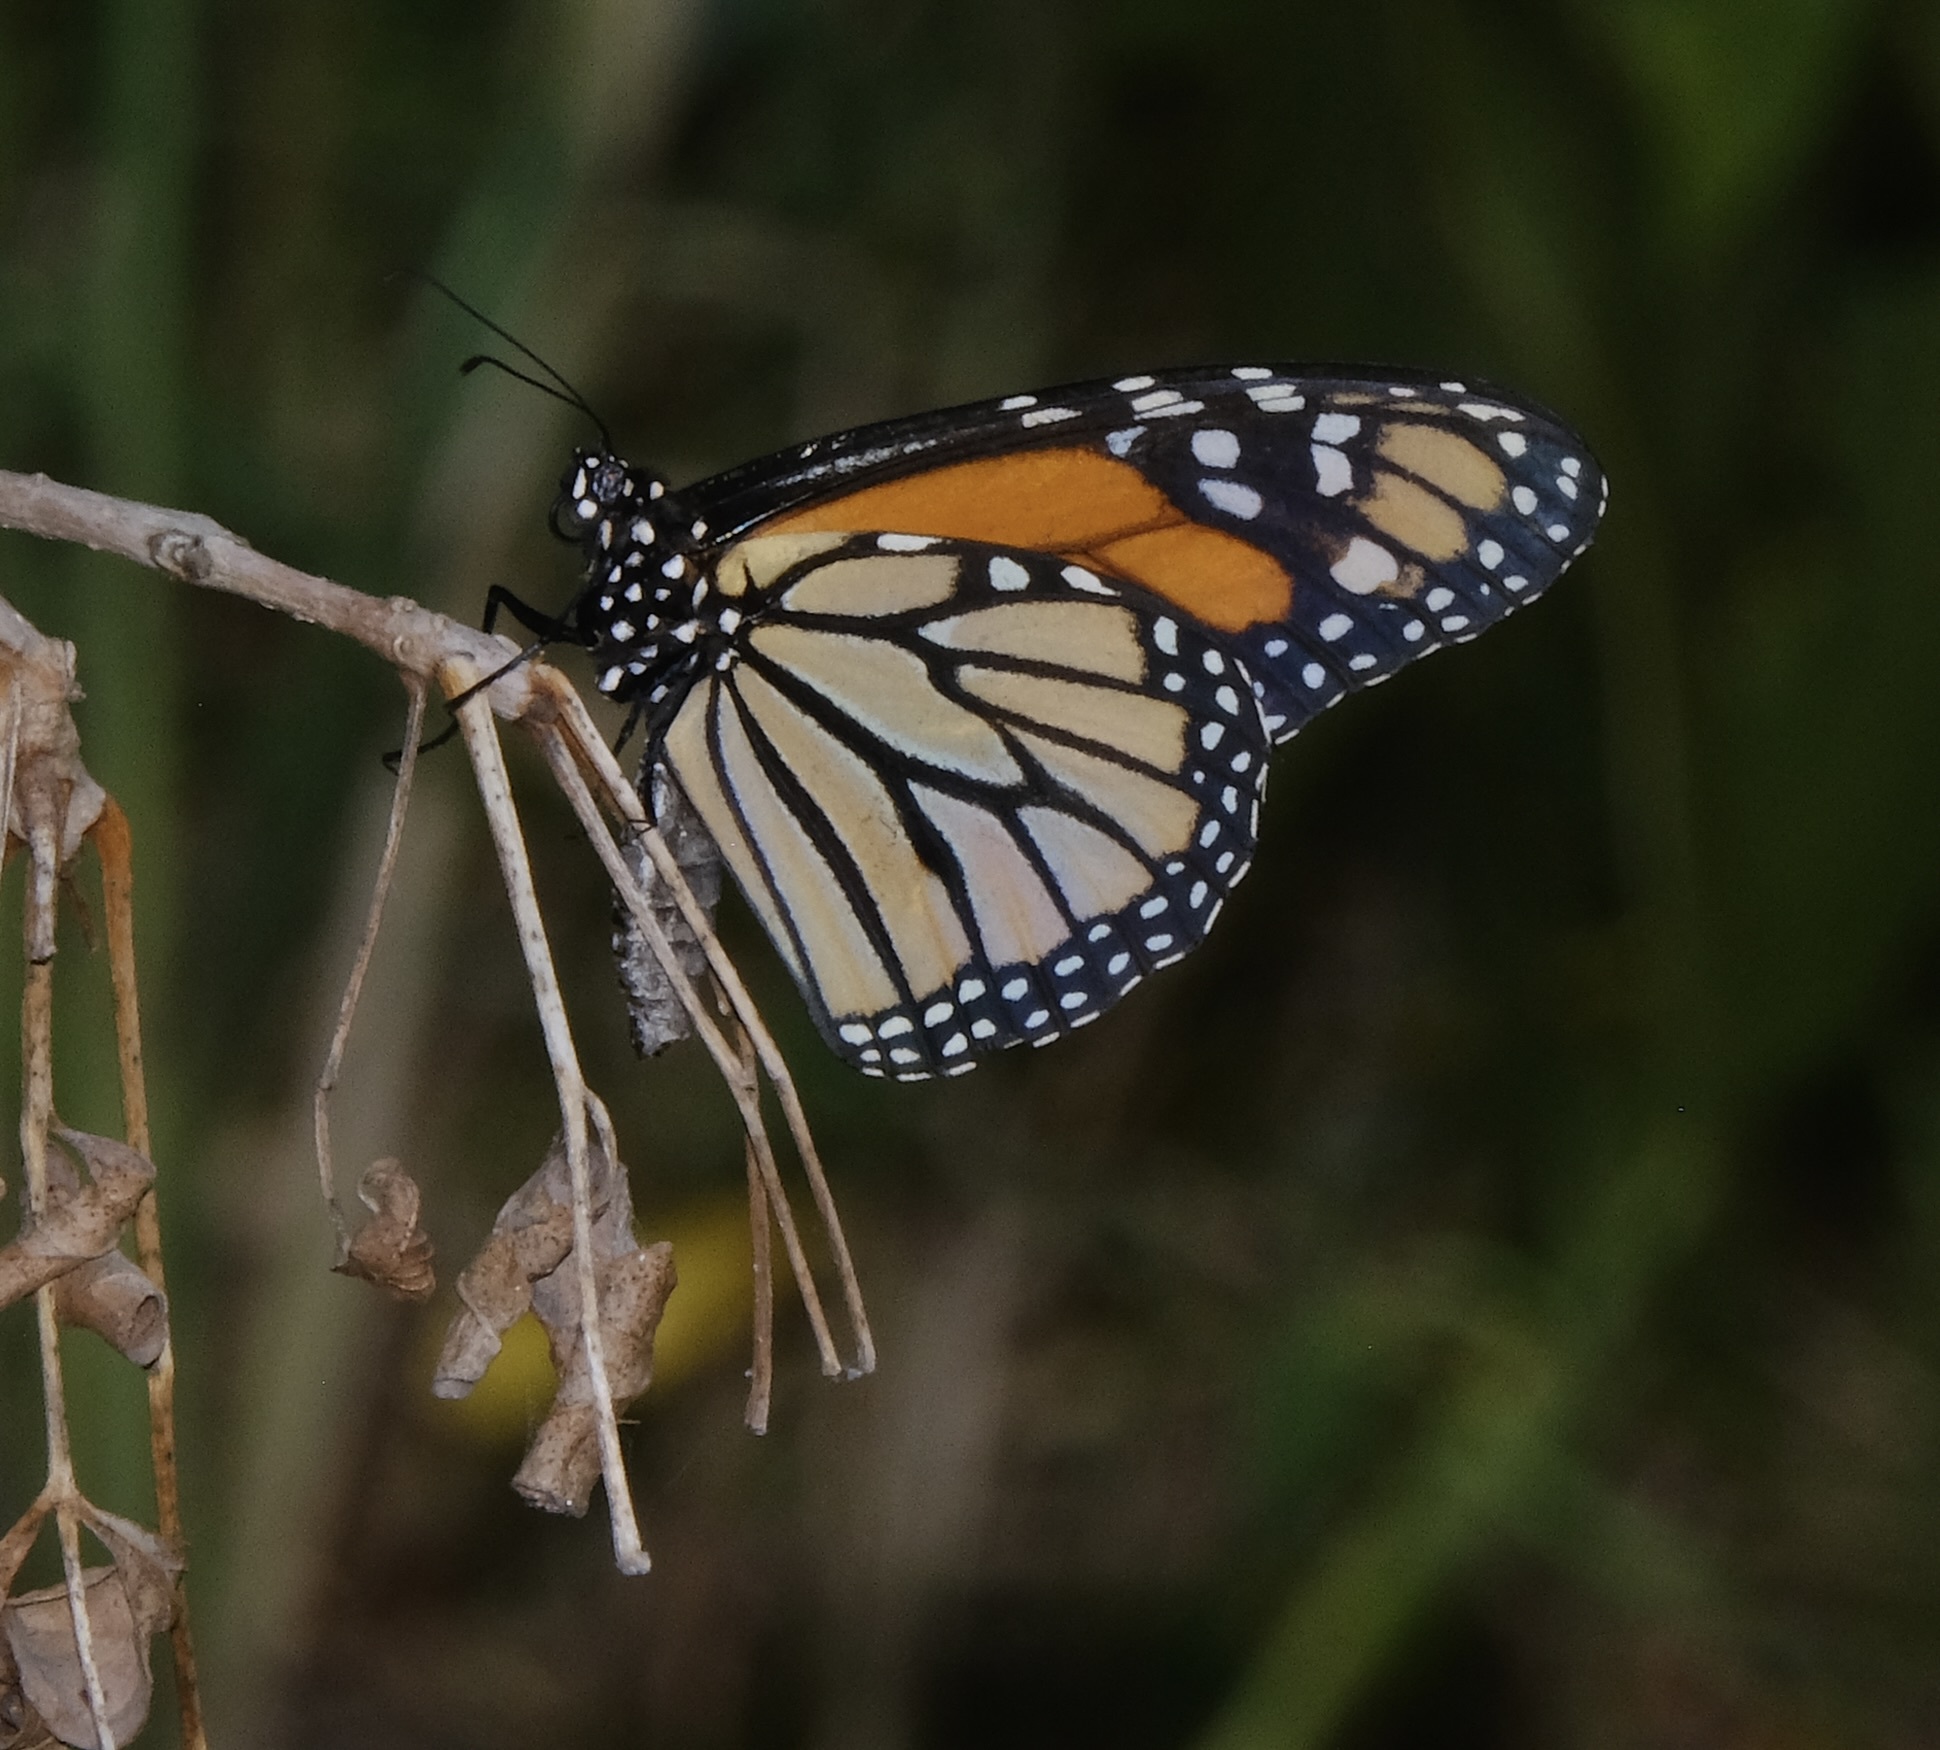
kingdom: Animalia
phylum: Arthropoda
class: Insecta
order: Lepidoptera
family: Nymphalidae
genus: Danaus
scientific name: Danaus plexippus
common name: Monarch
